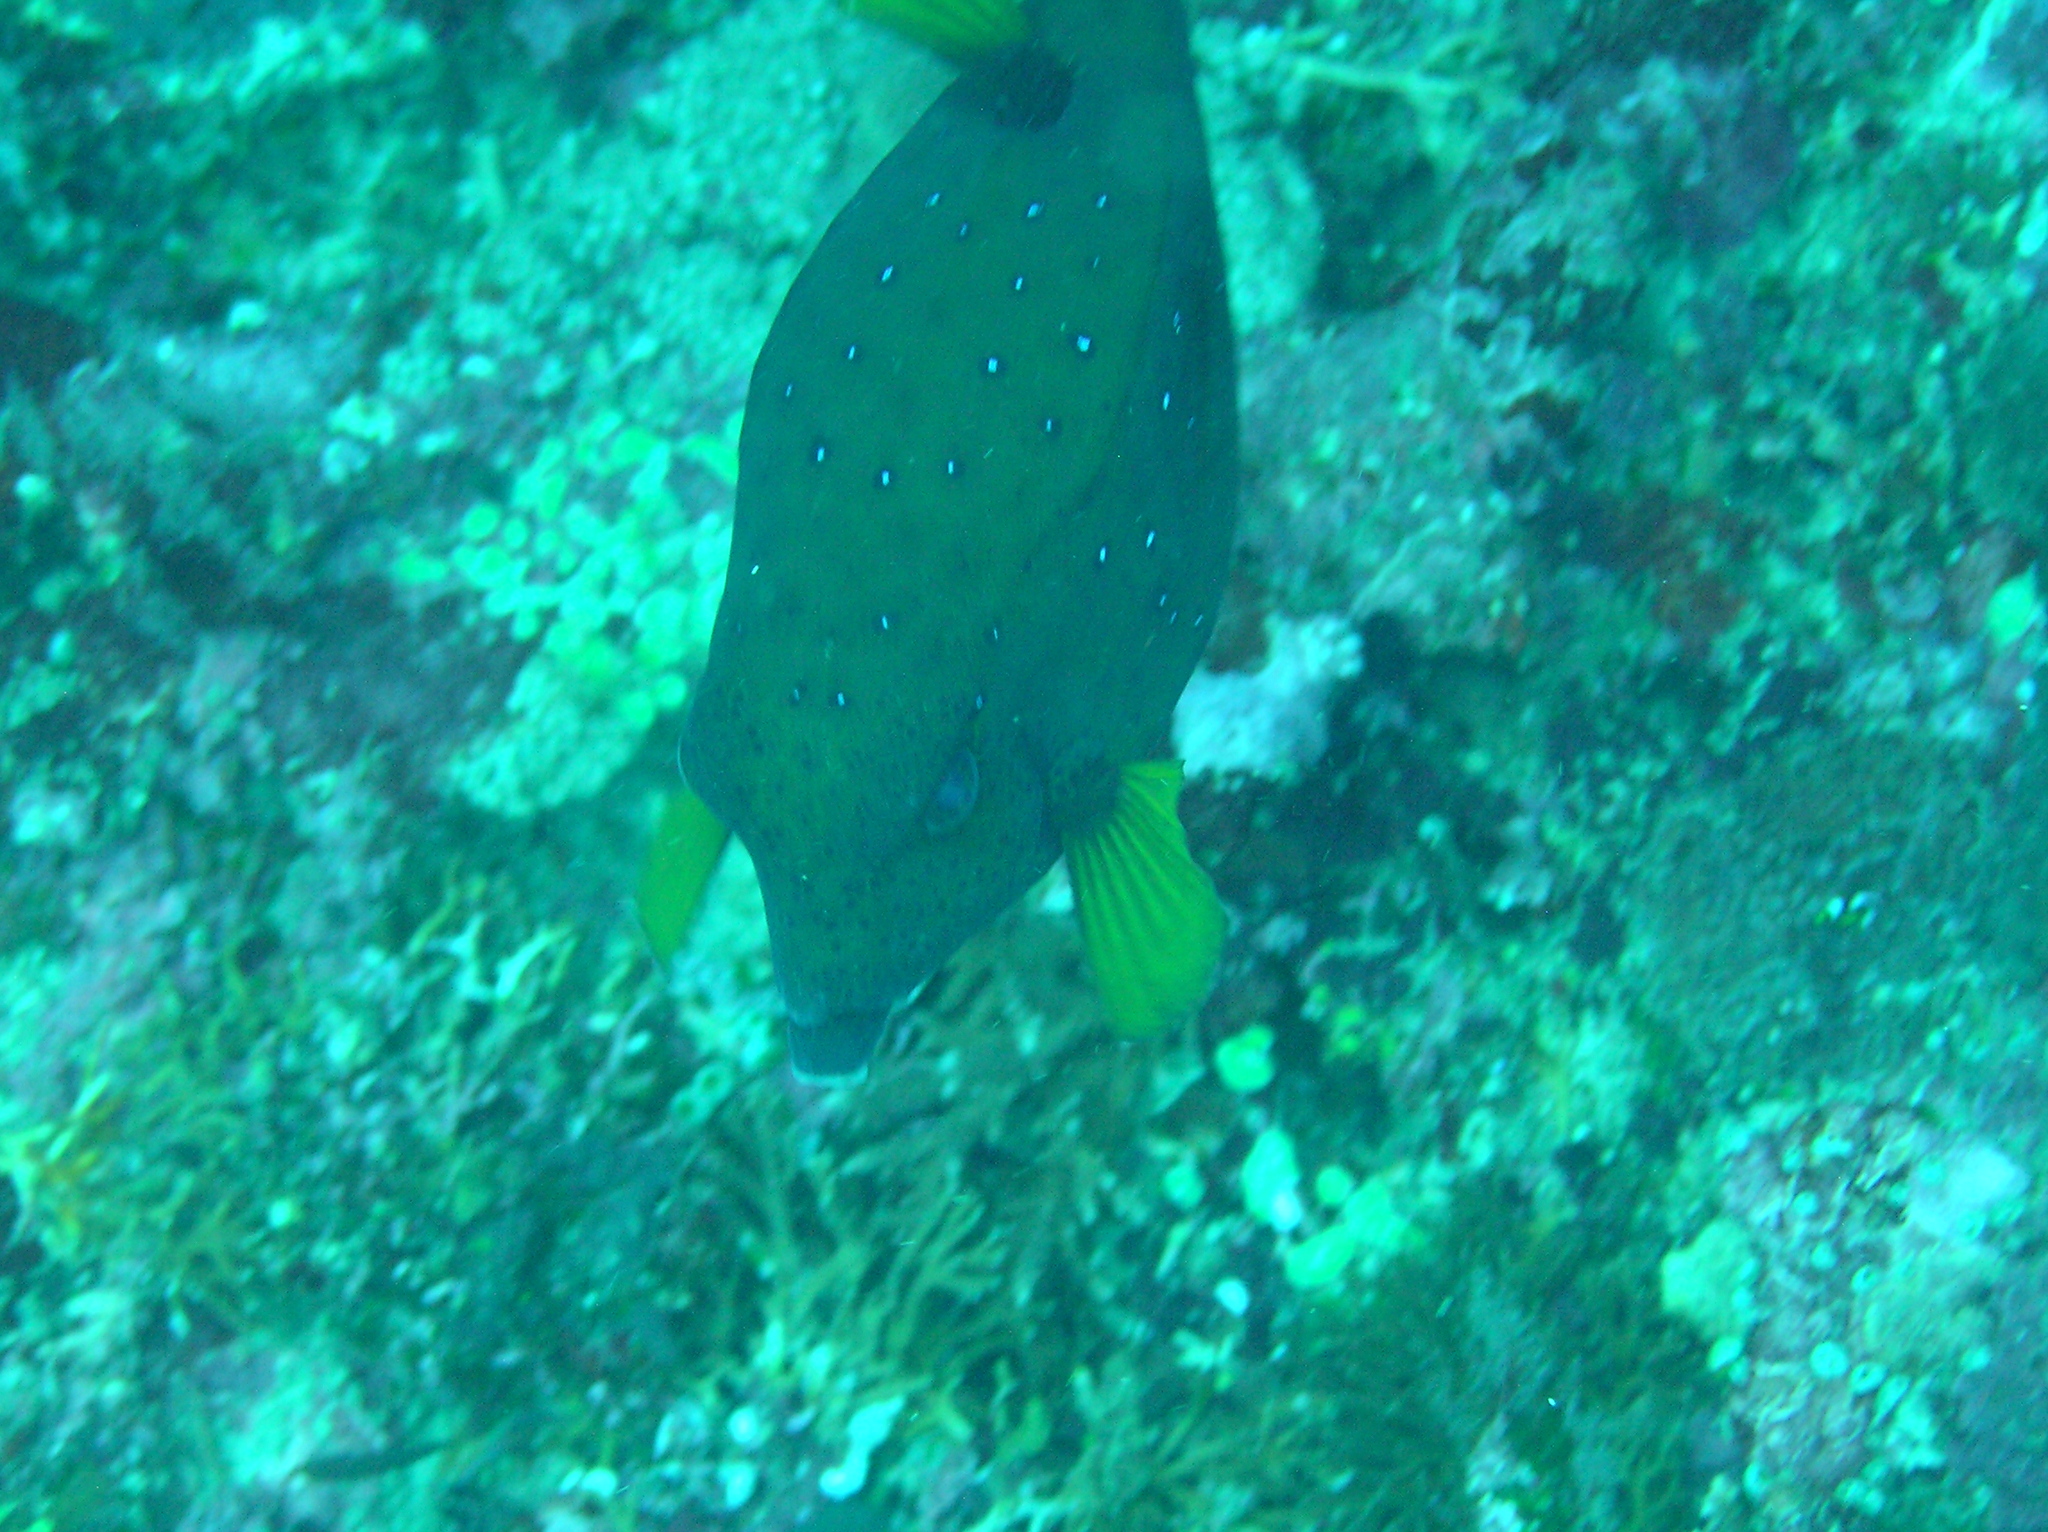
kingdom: Animalia
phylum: Chordata
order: Tetraodontiformes
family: Ostraciidae
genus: Ostracion
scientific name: Ostracion cubicus
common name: Cube trunkfish
